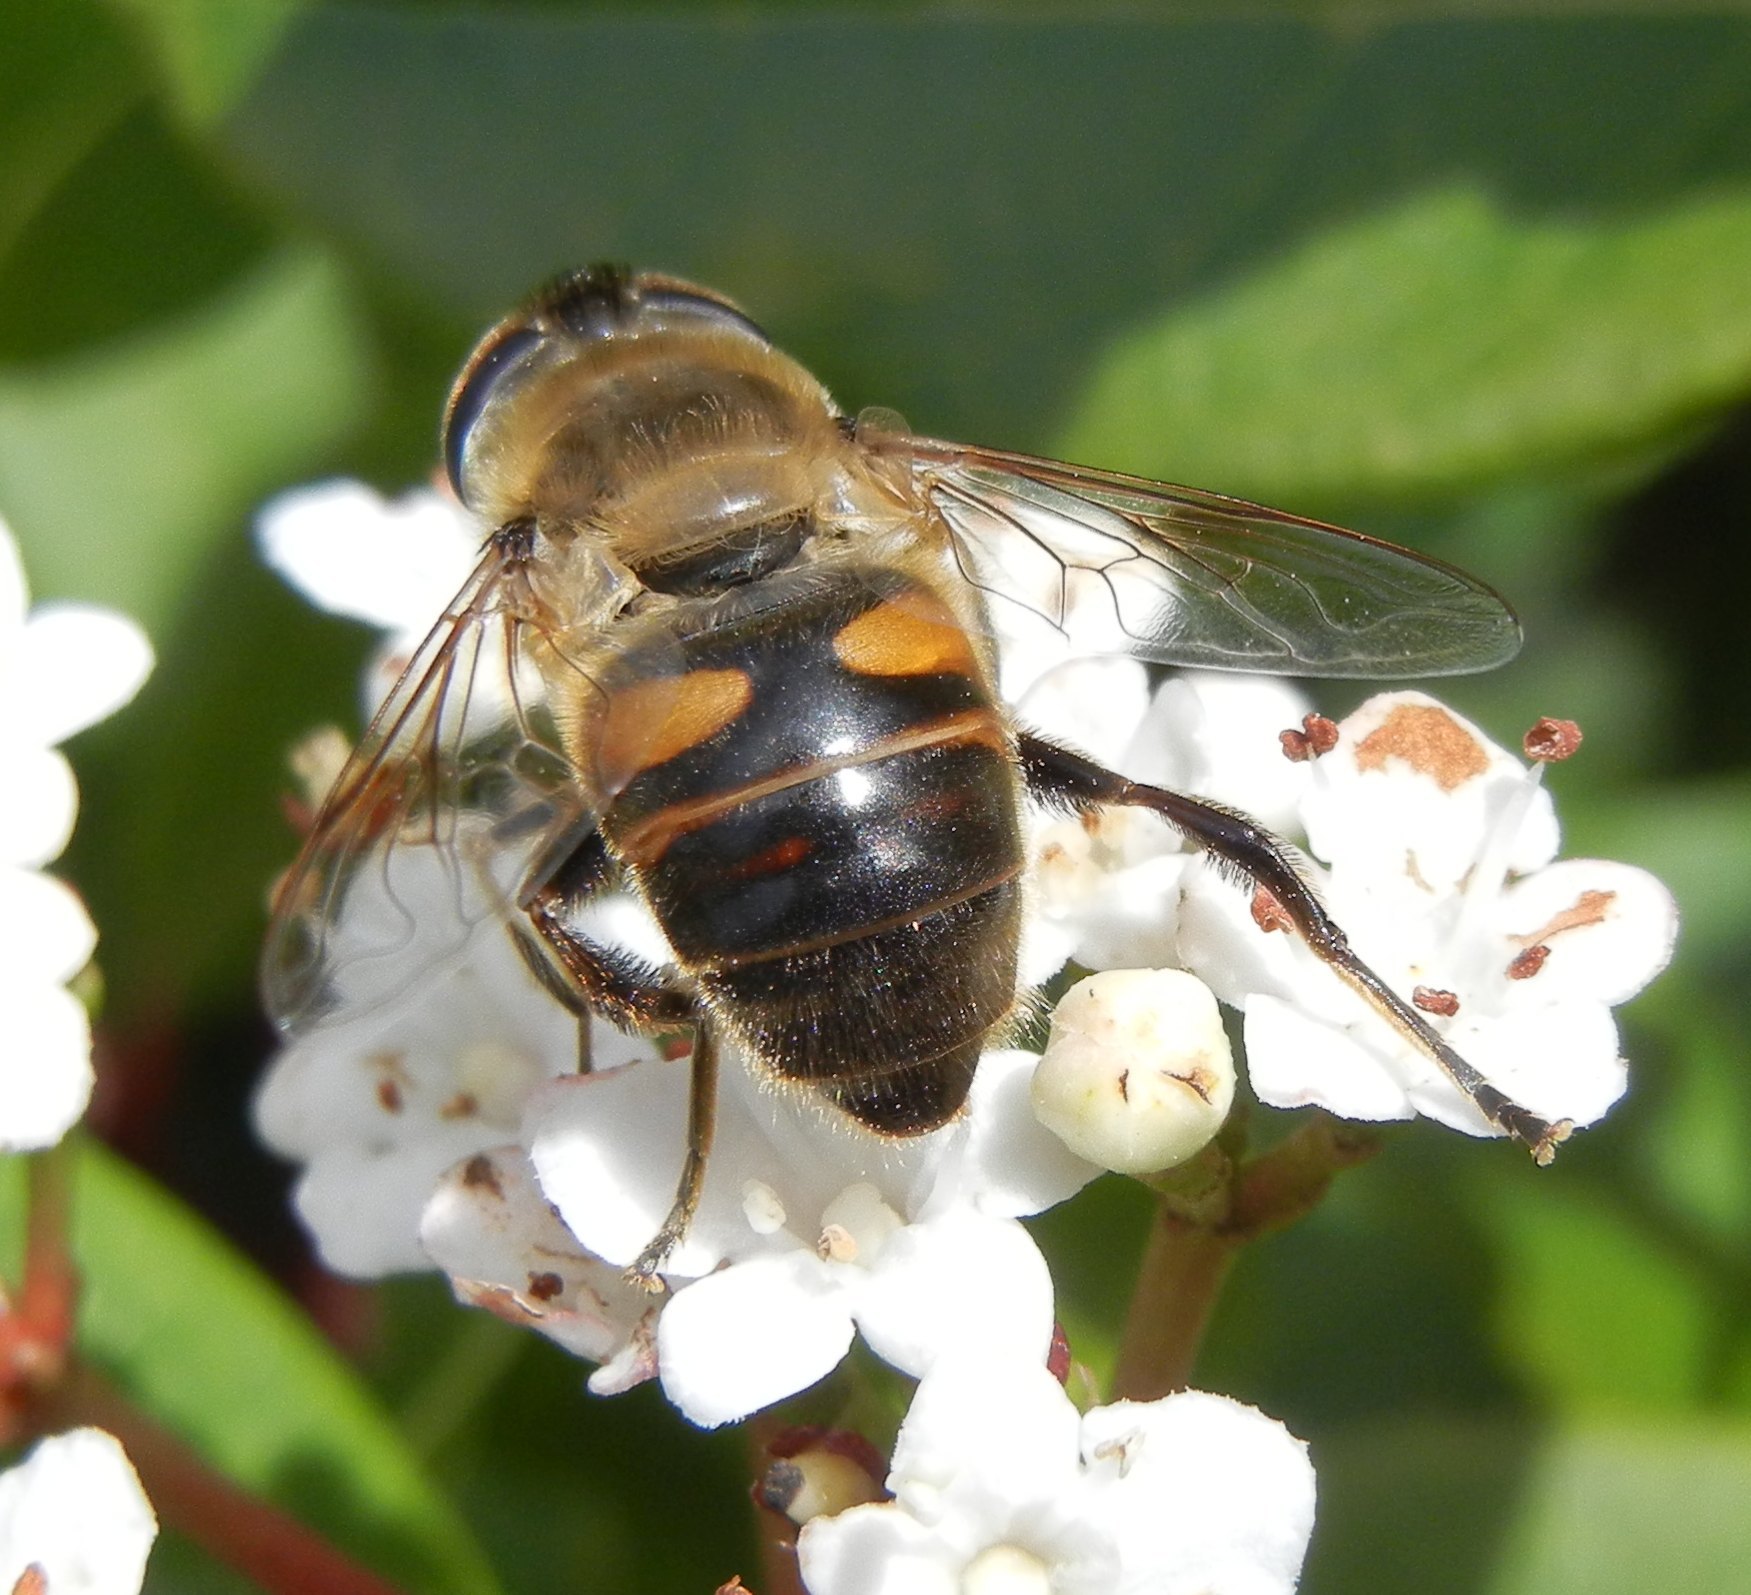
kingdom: Animalia
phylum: Arthropoda
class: Insecta
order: Diptera
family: Syrphidae
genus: Eristalis
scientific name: Eristalis tenax
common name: Drone fly
